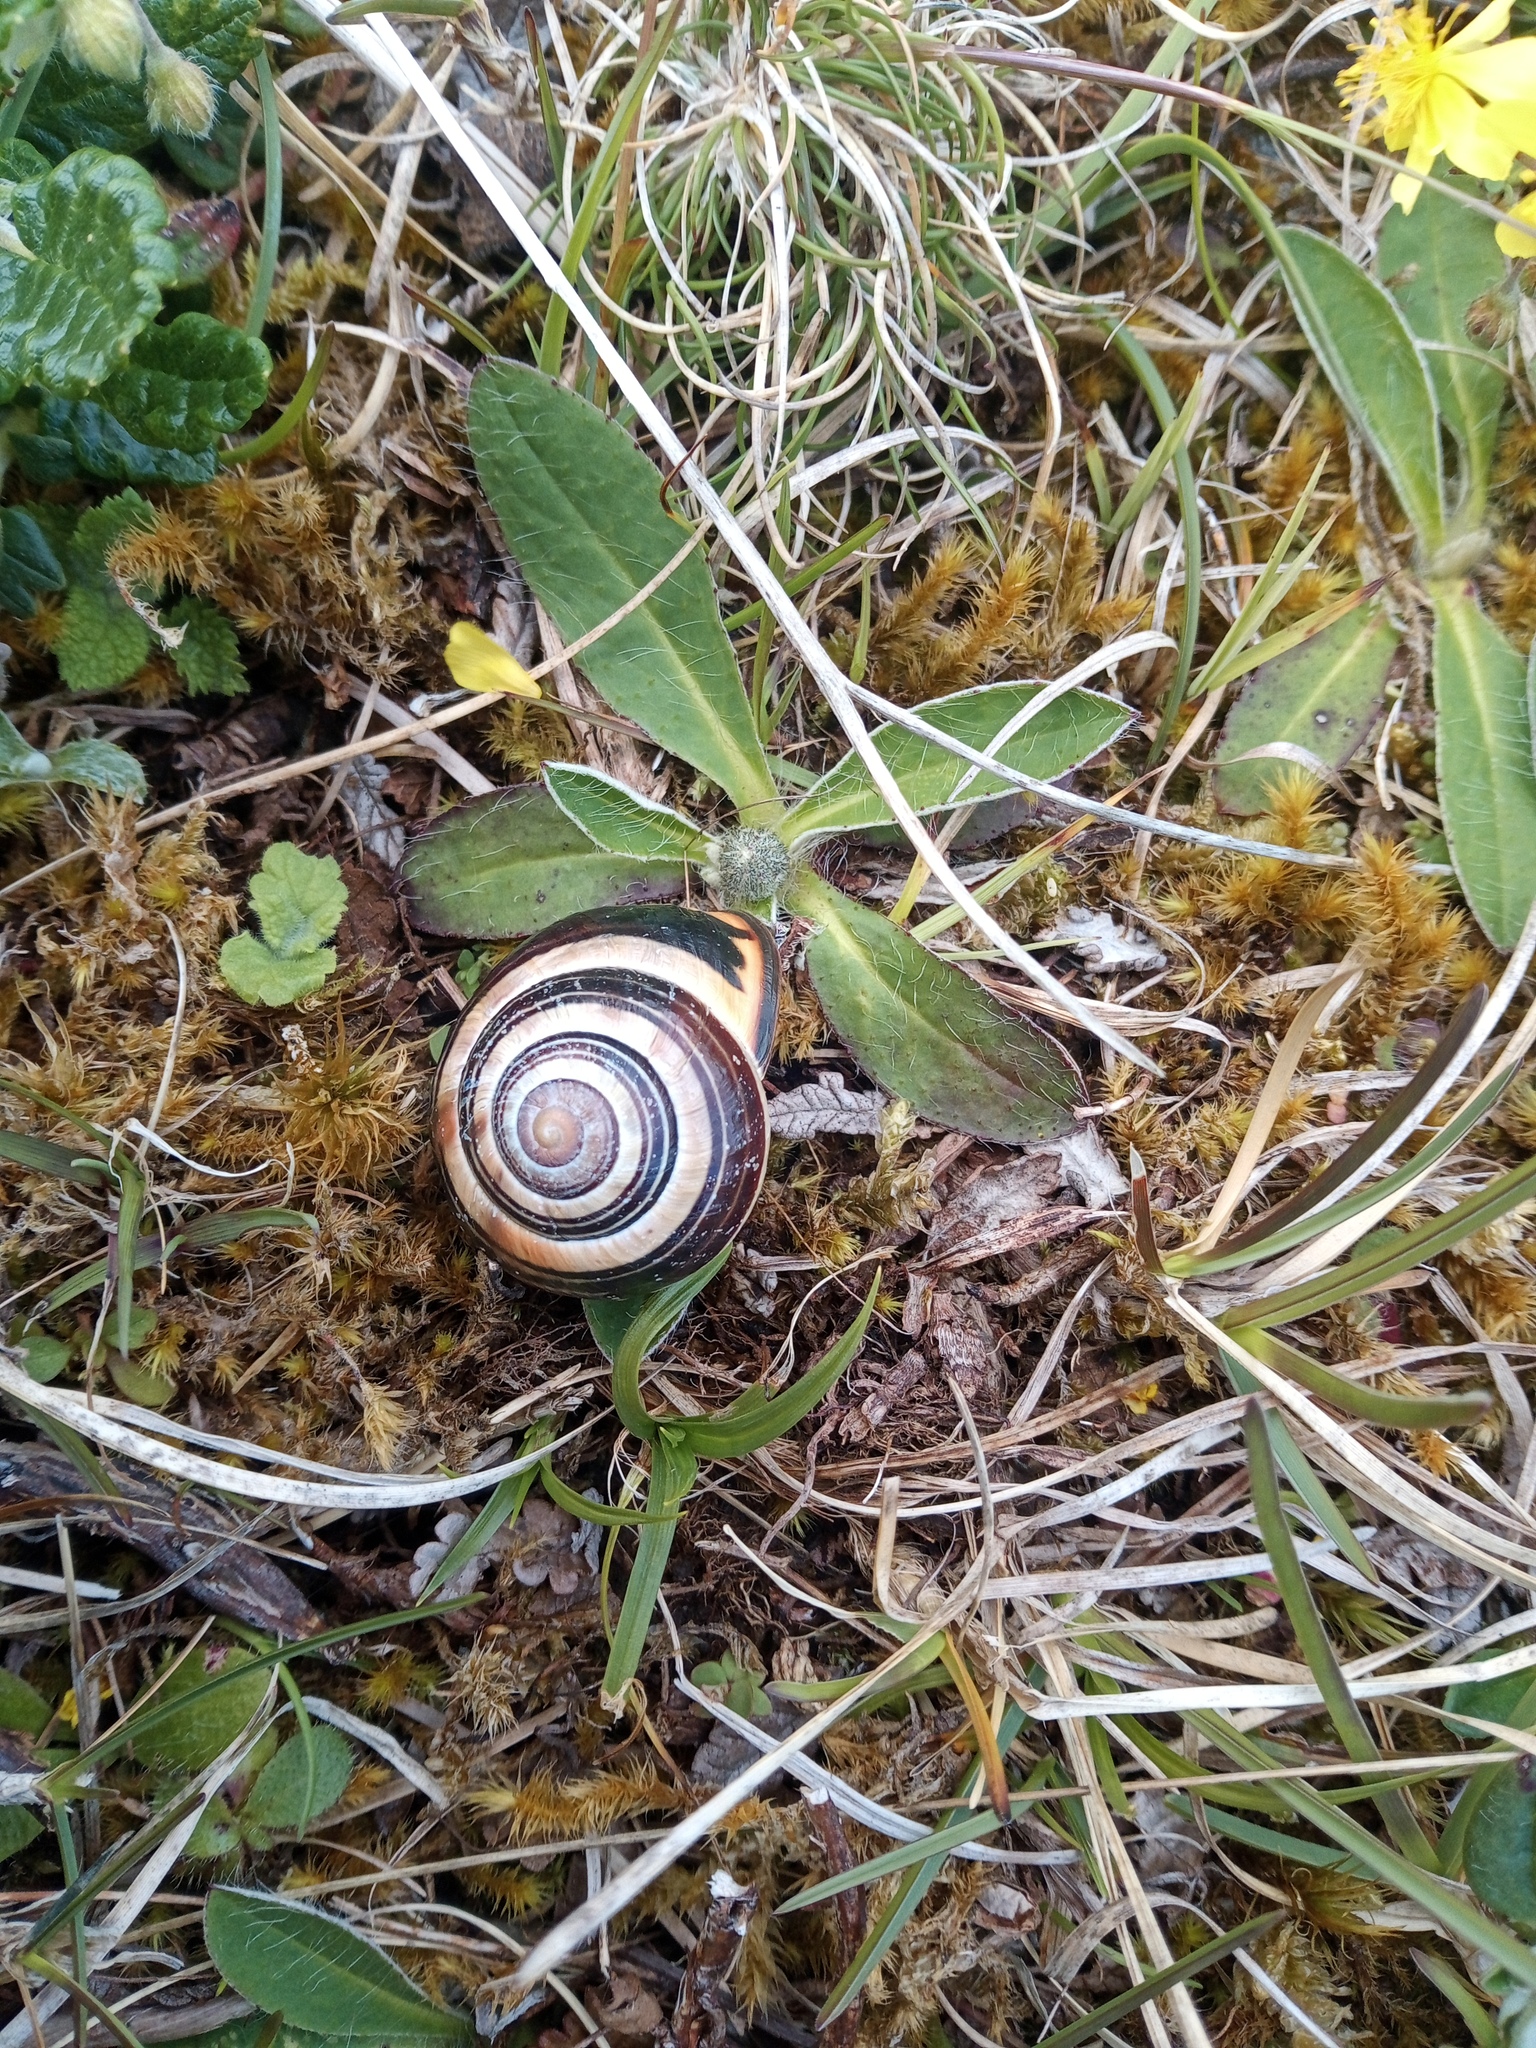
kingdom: Animalia
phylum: Mollusca
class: Gastropoda
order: Stylommatophora
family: Helicidae
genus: Cepaea
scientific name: Cepaea nemoralis
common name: Grovesnail
